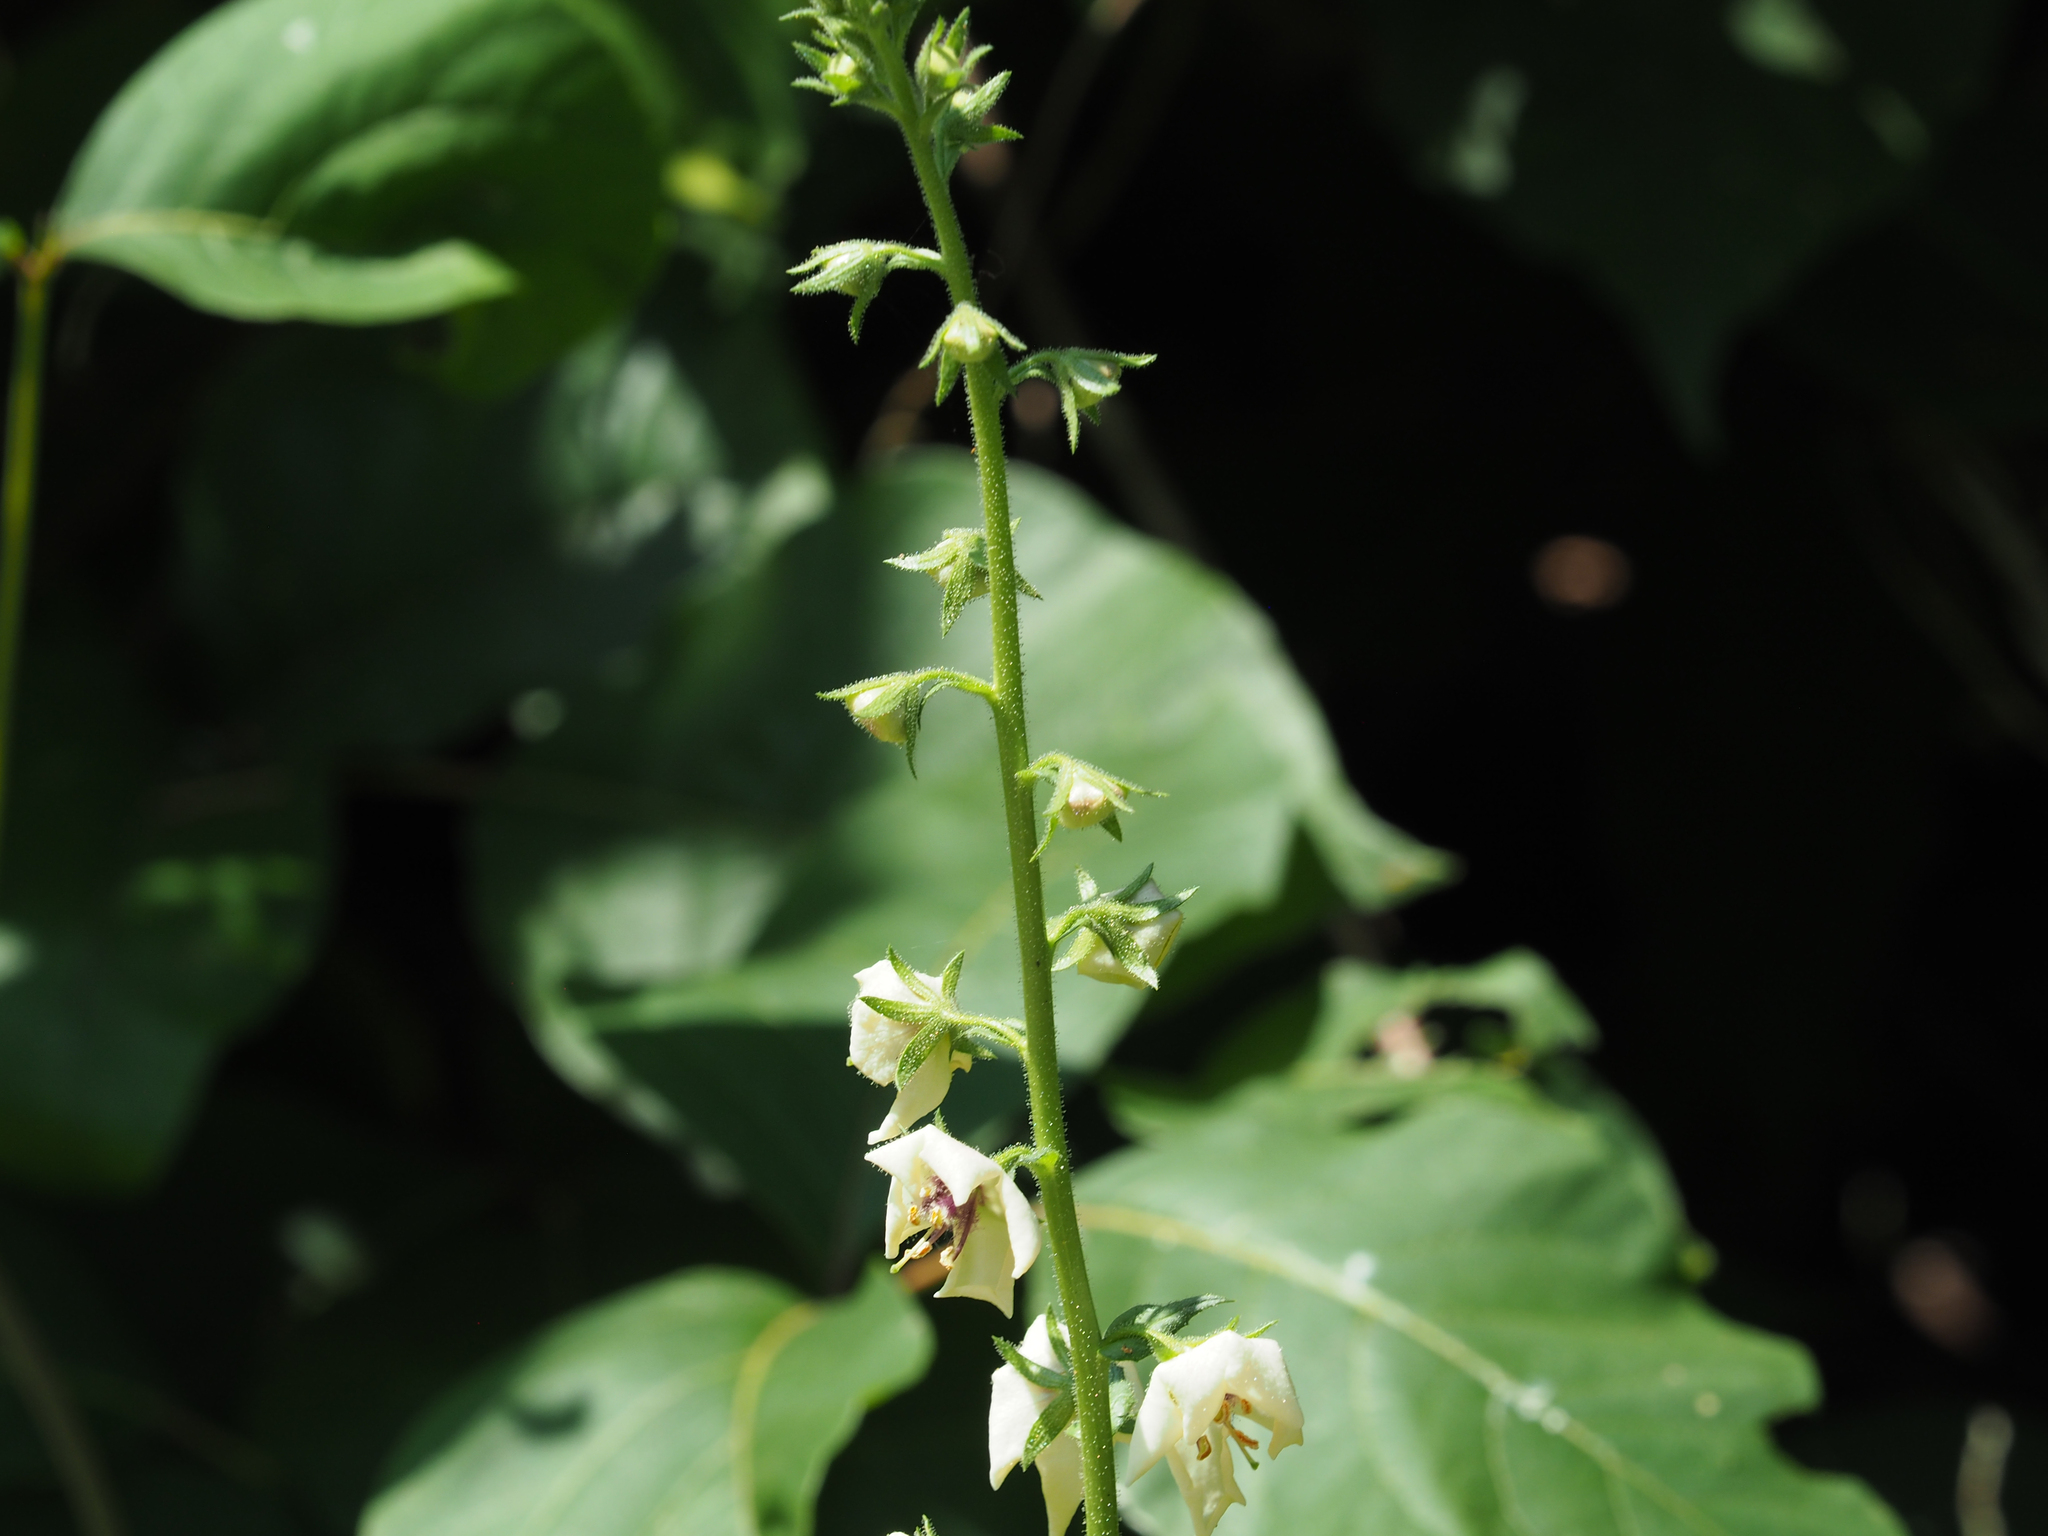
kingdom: Plantae
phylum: Tracheophyta
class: Magnoliopsida
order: Lamiales
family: Scrophulariaceae
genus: Verbascum
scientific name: Verbascum blattaria
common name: Moth mullein
